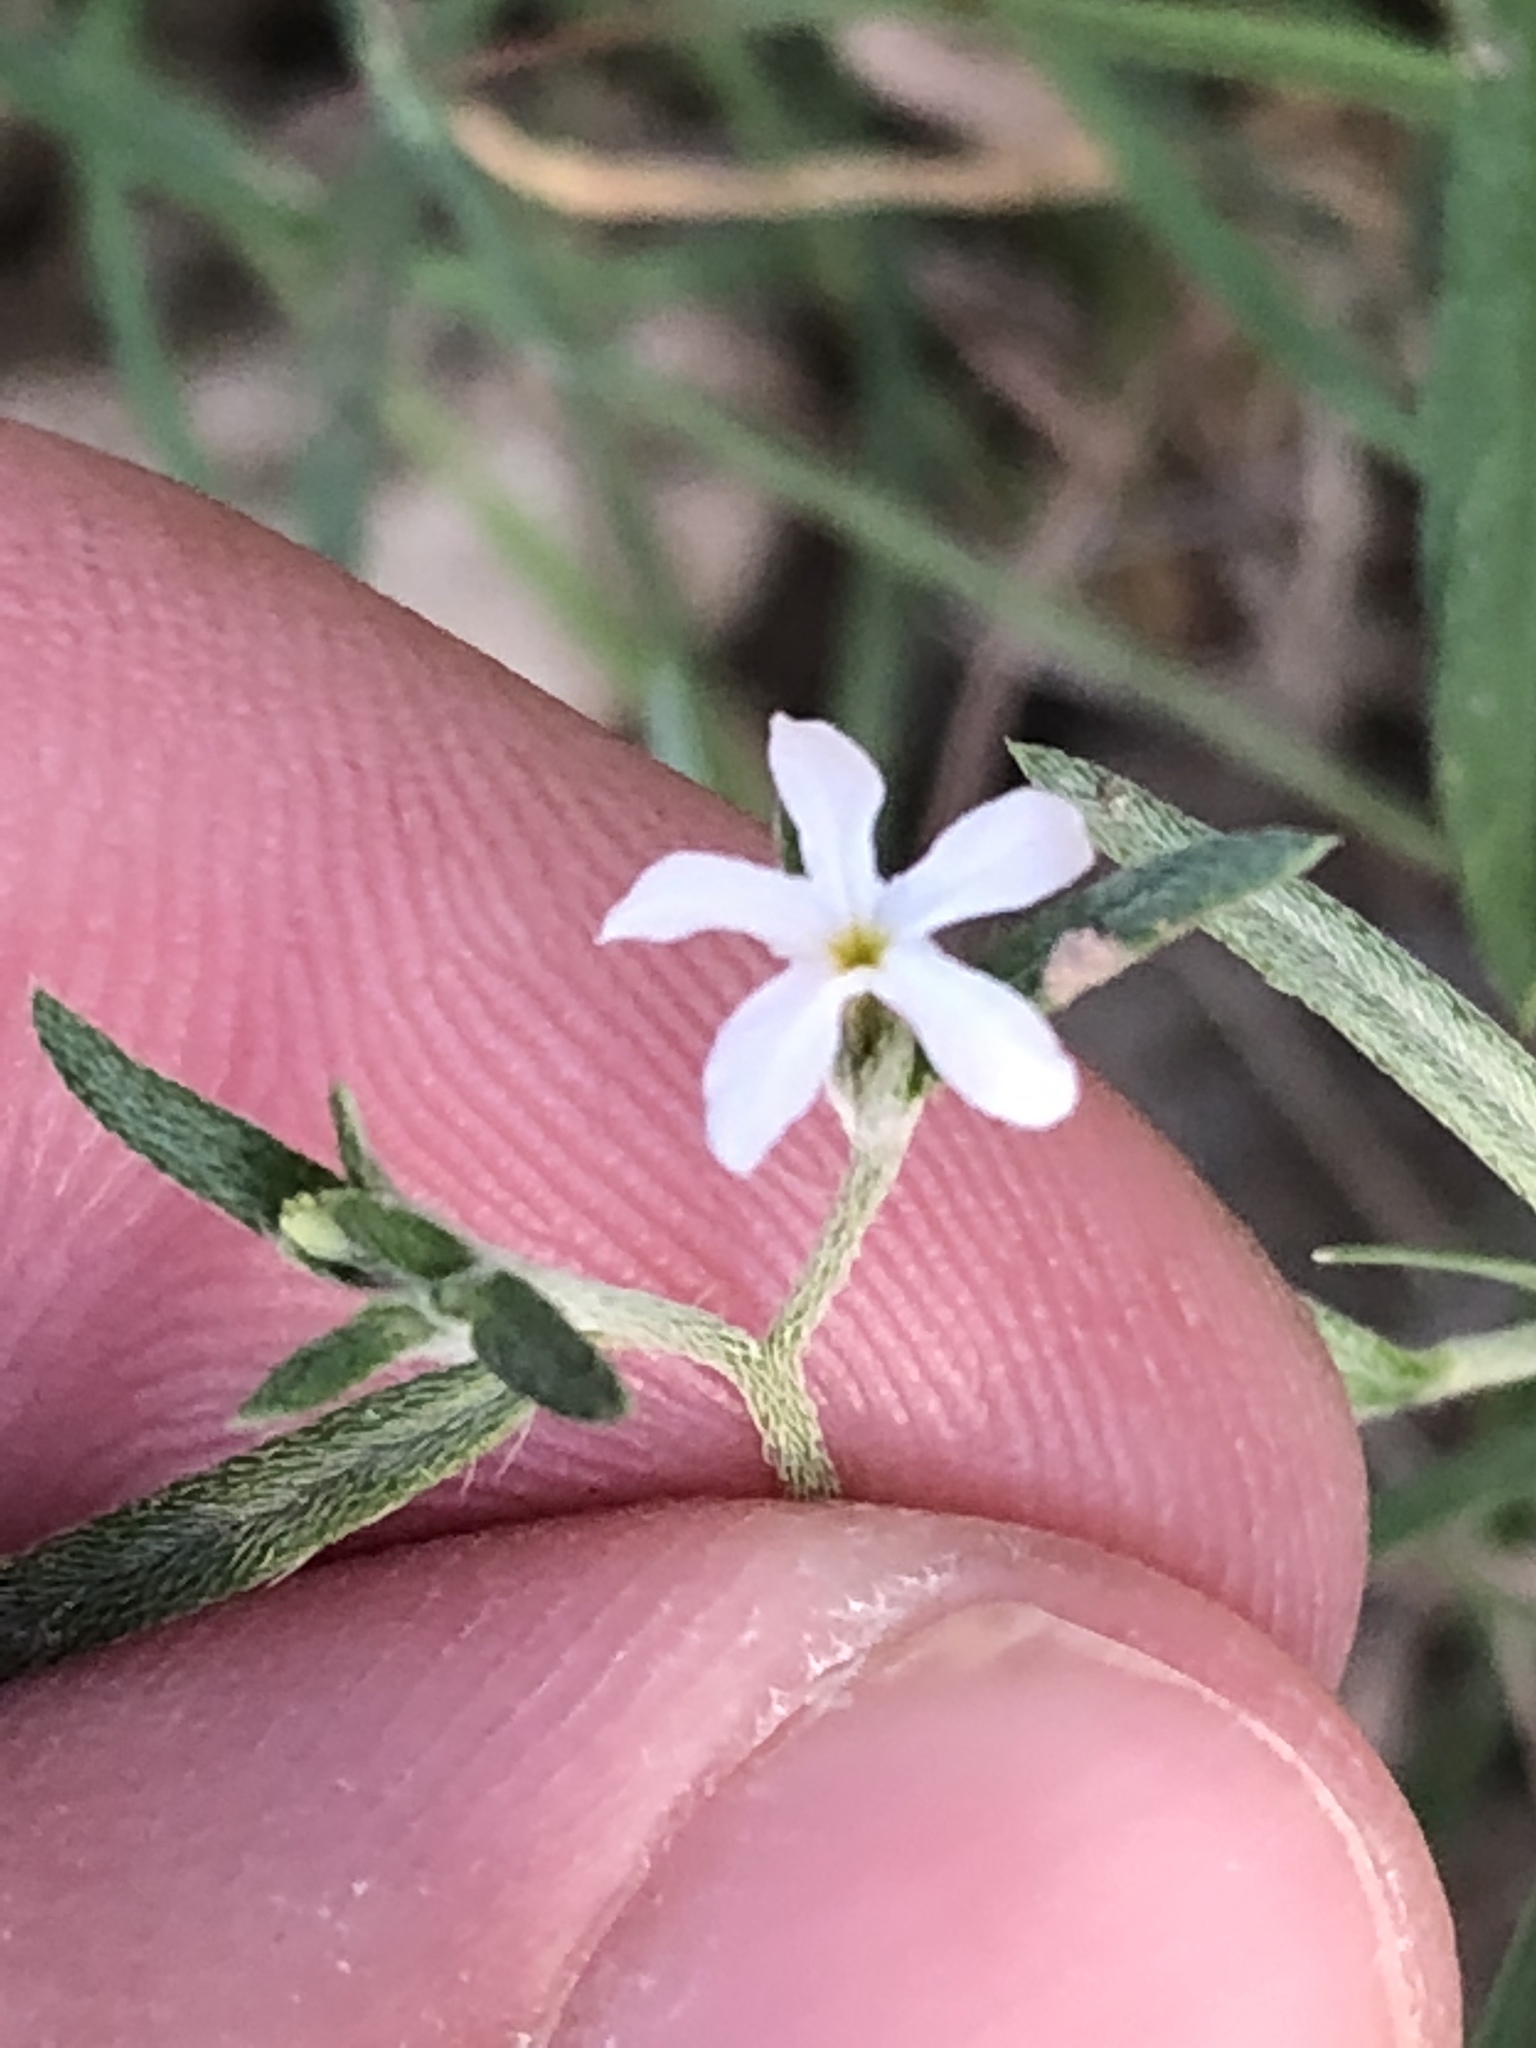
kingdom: Plantae
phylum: Tracheophyta
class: Magnoliopsida
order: Boraginales
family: Heliotropiaceae
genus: Euploca
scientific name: Euploca tenella
